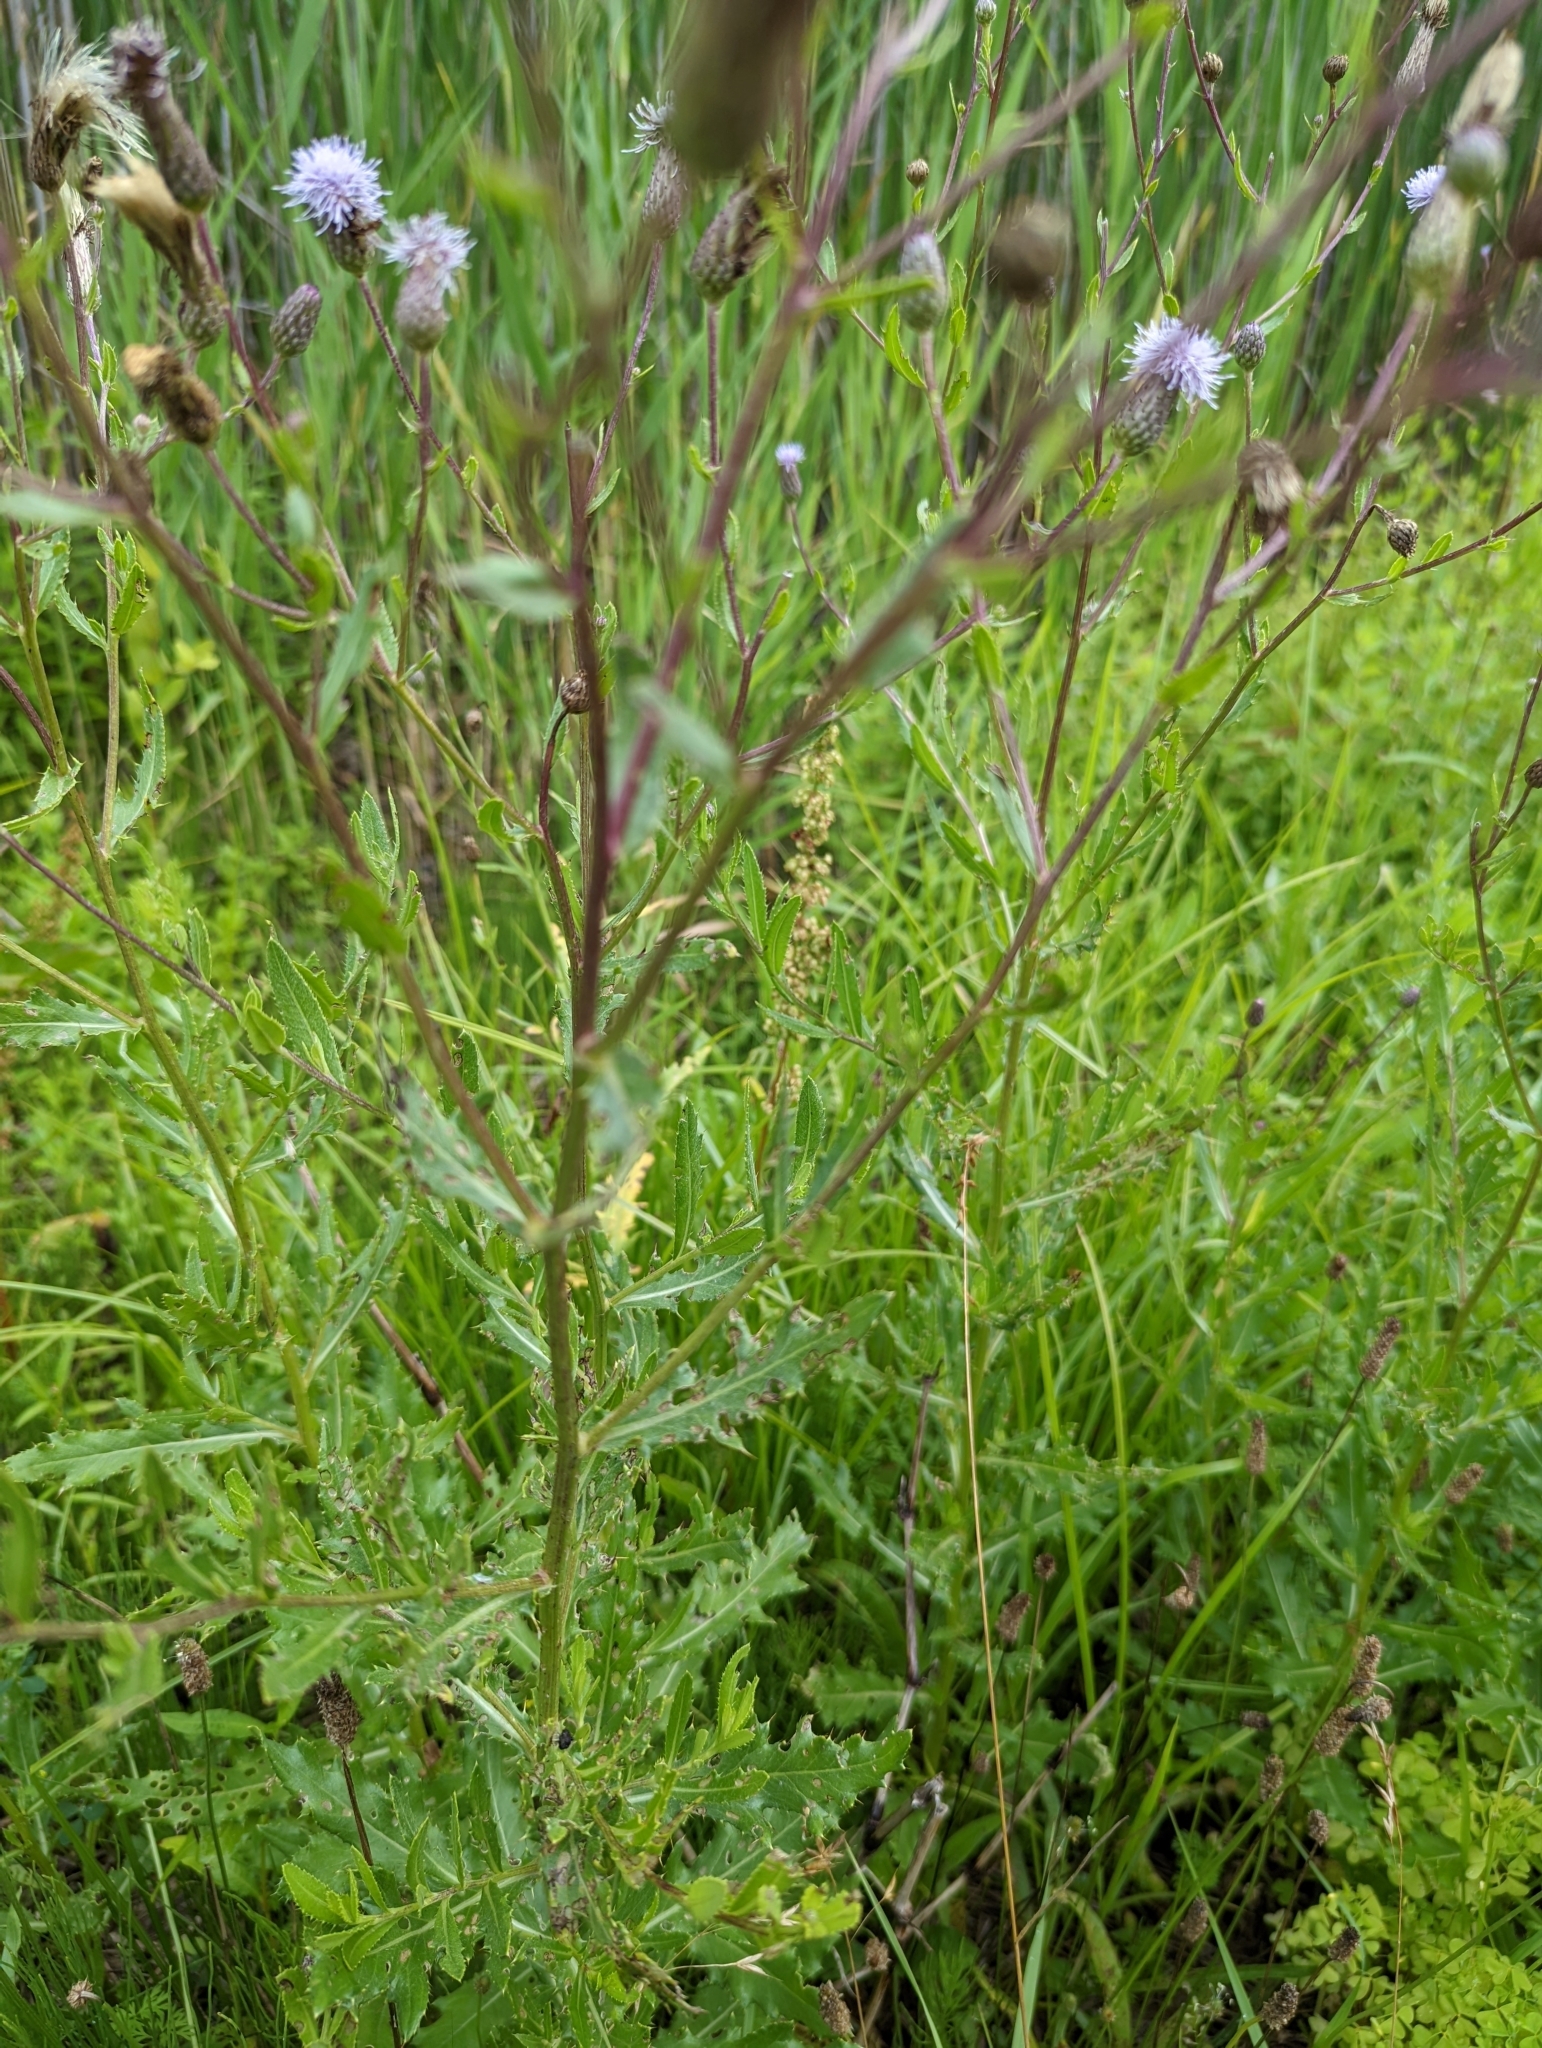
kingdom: Plantae
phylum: Tracheophyta
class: Magnoliopsida
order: Asterales
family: Asteraceae
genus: Cirsium
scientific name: Cirsium arvense
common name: Creeping thistle
